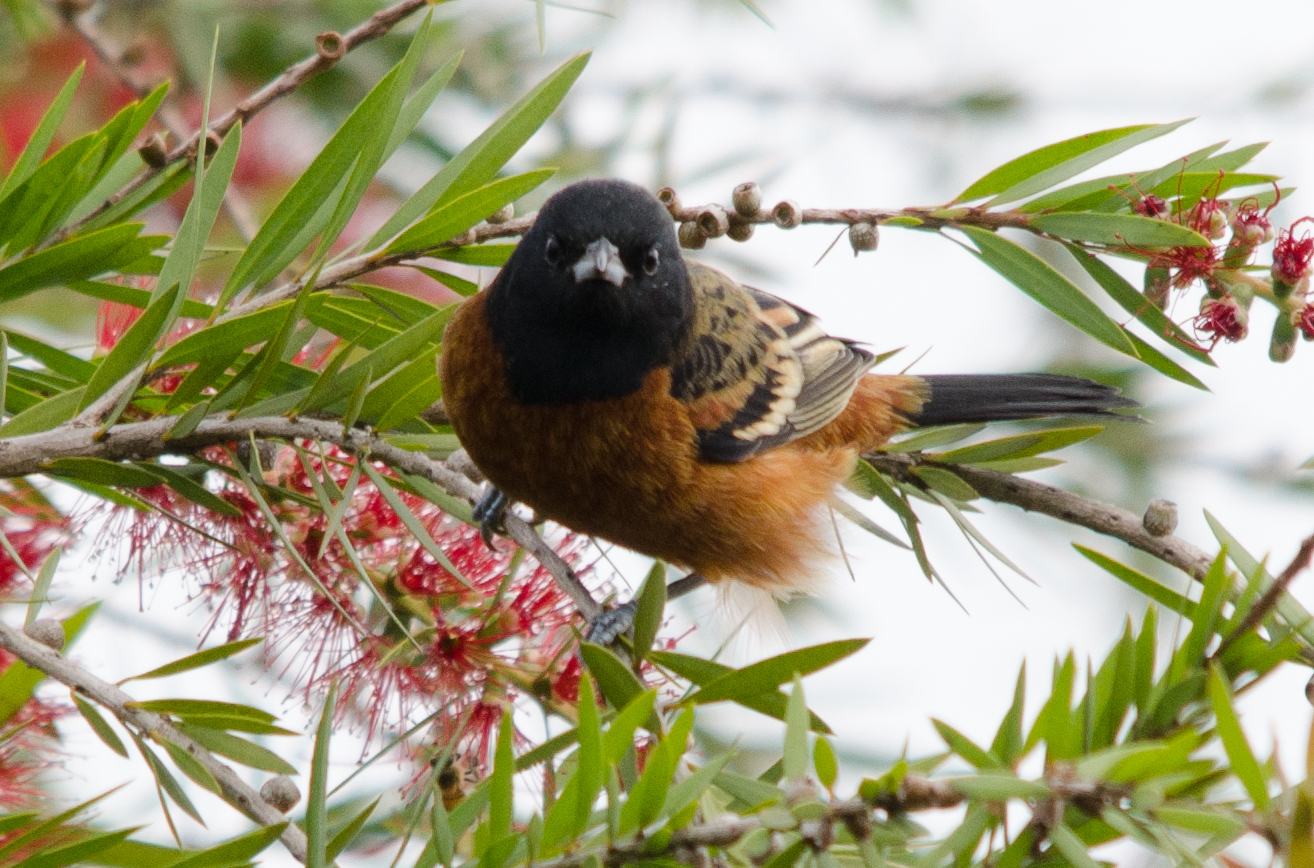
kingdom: Animalia
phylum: Chordata
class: Aves
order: Passeriformes
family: Icteridae
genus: Icterus
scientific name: Icterus spurius
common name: Orchard oriole
